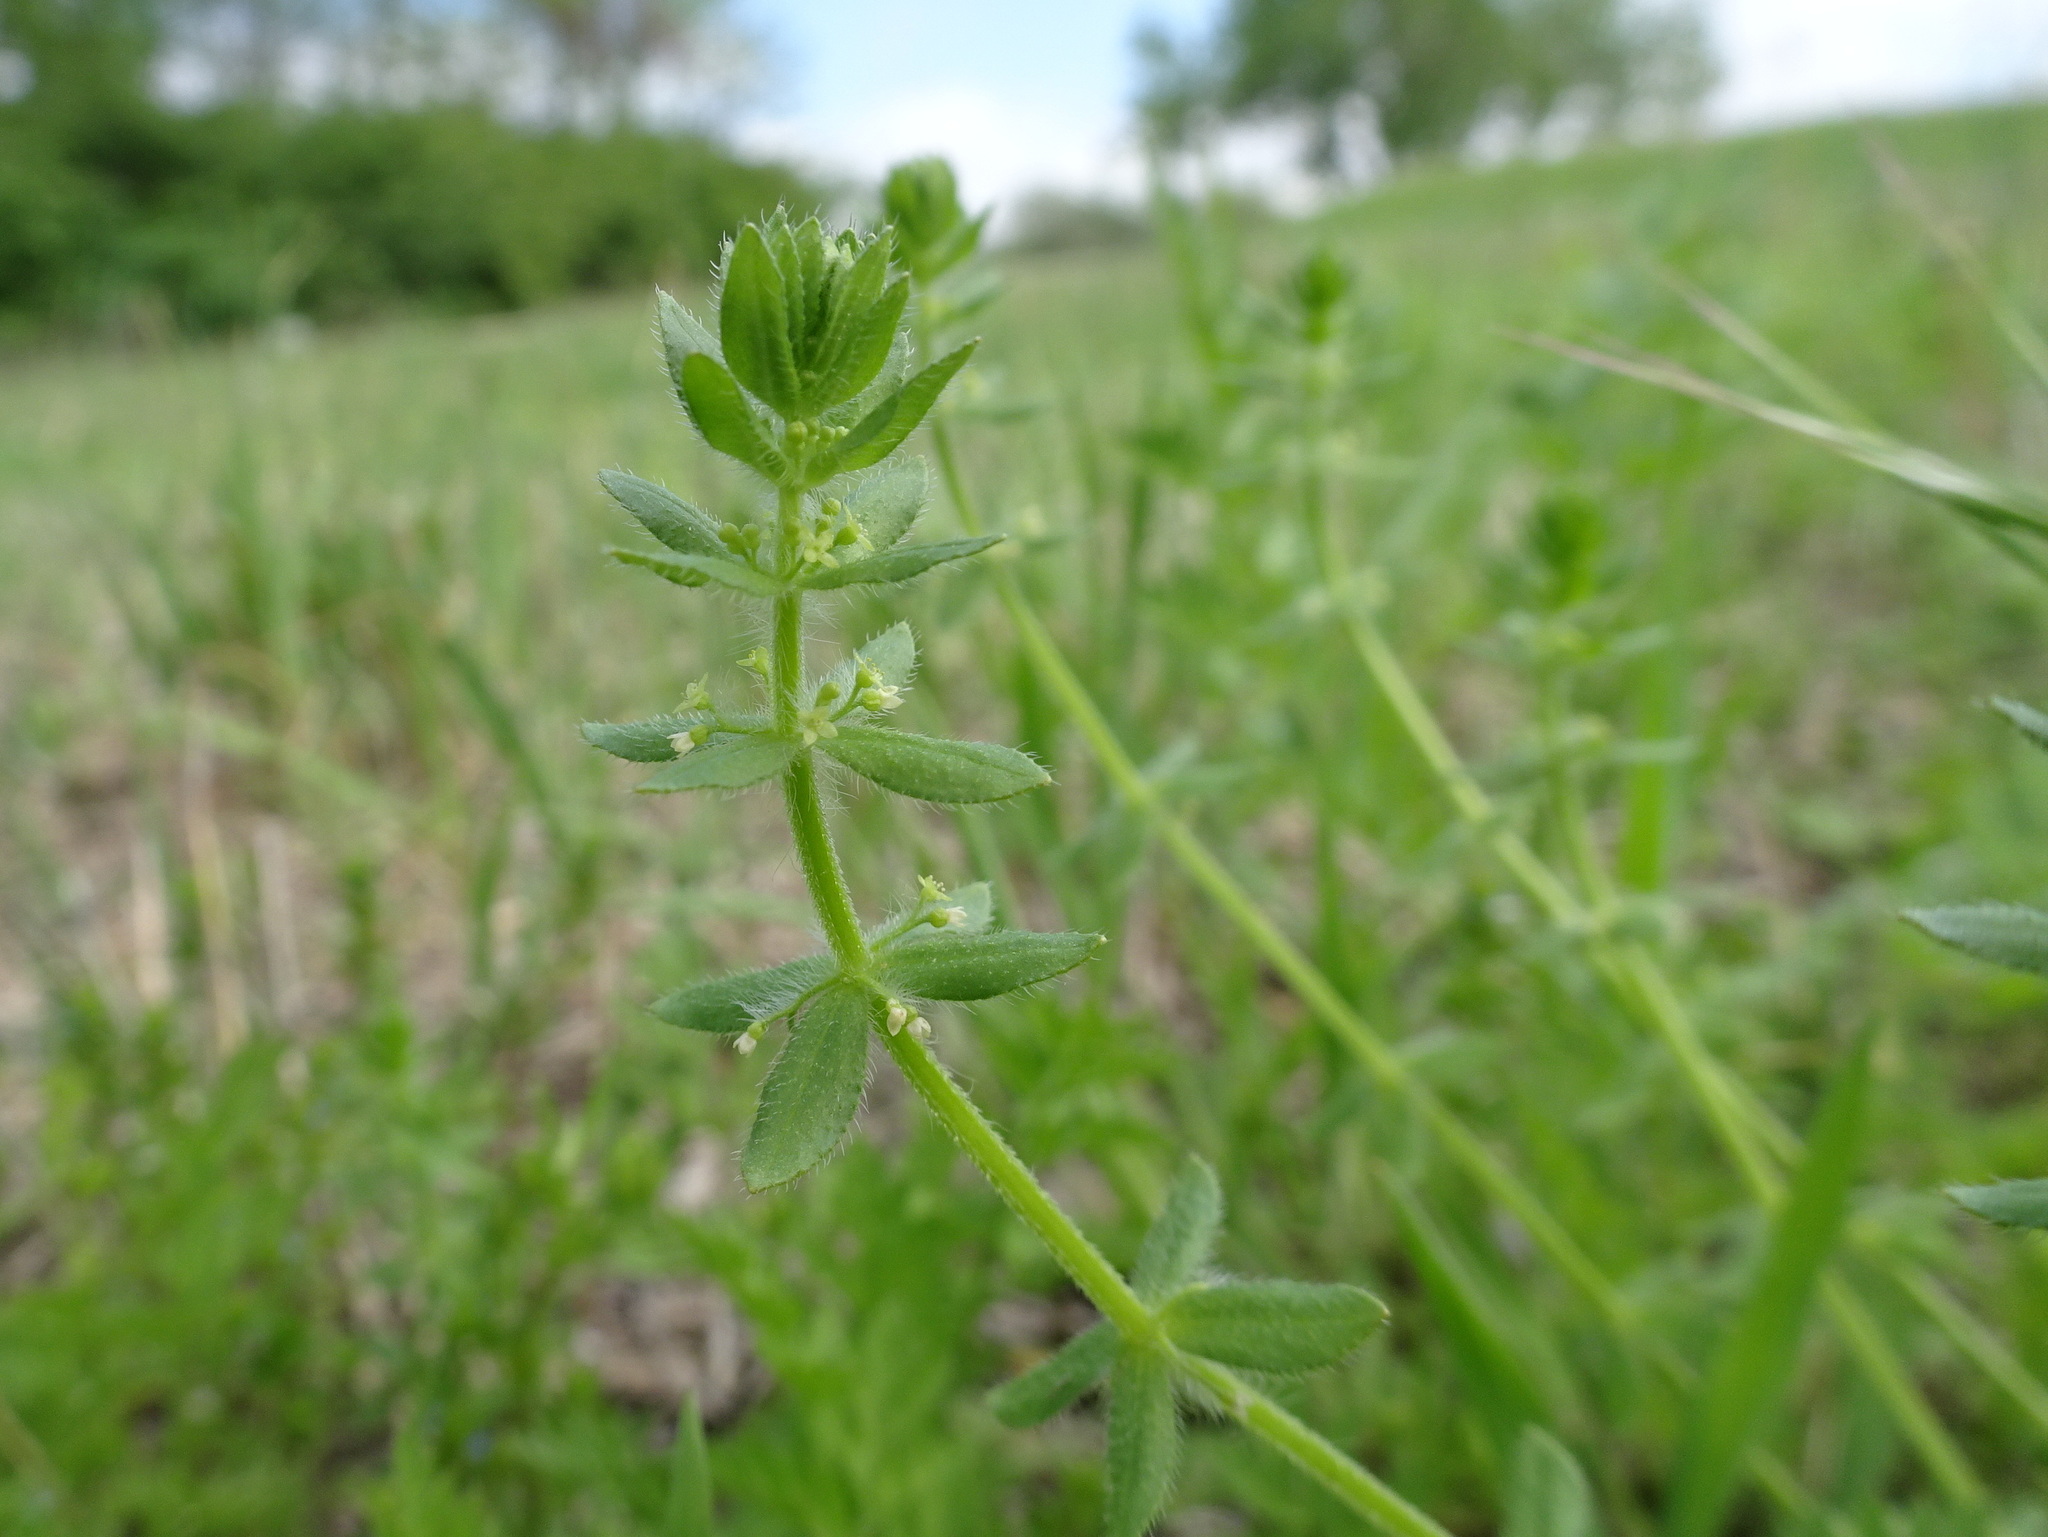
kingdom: Plantae
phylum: Tracheophyta
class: Magnoliopsida
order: Gentianales
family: Rubiaceae
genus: Cruciata
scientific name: Cruciata pedemontana
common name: Piedmont bedstraw
